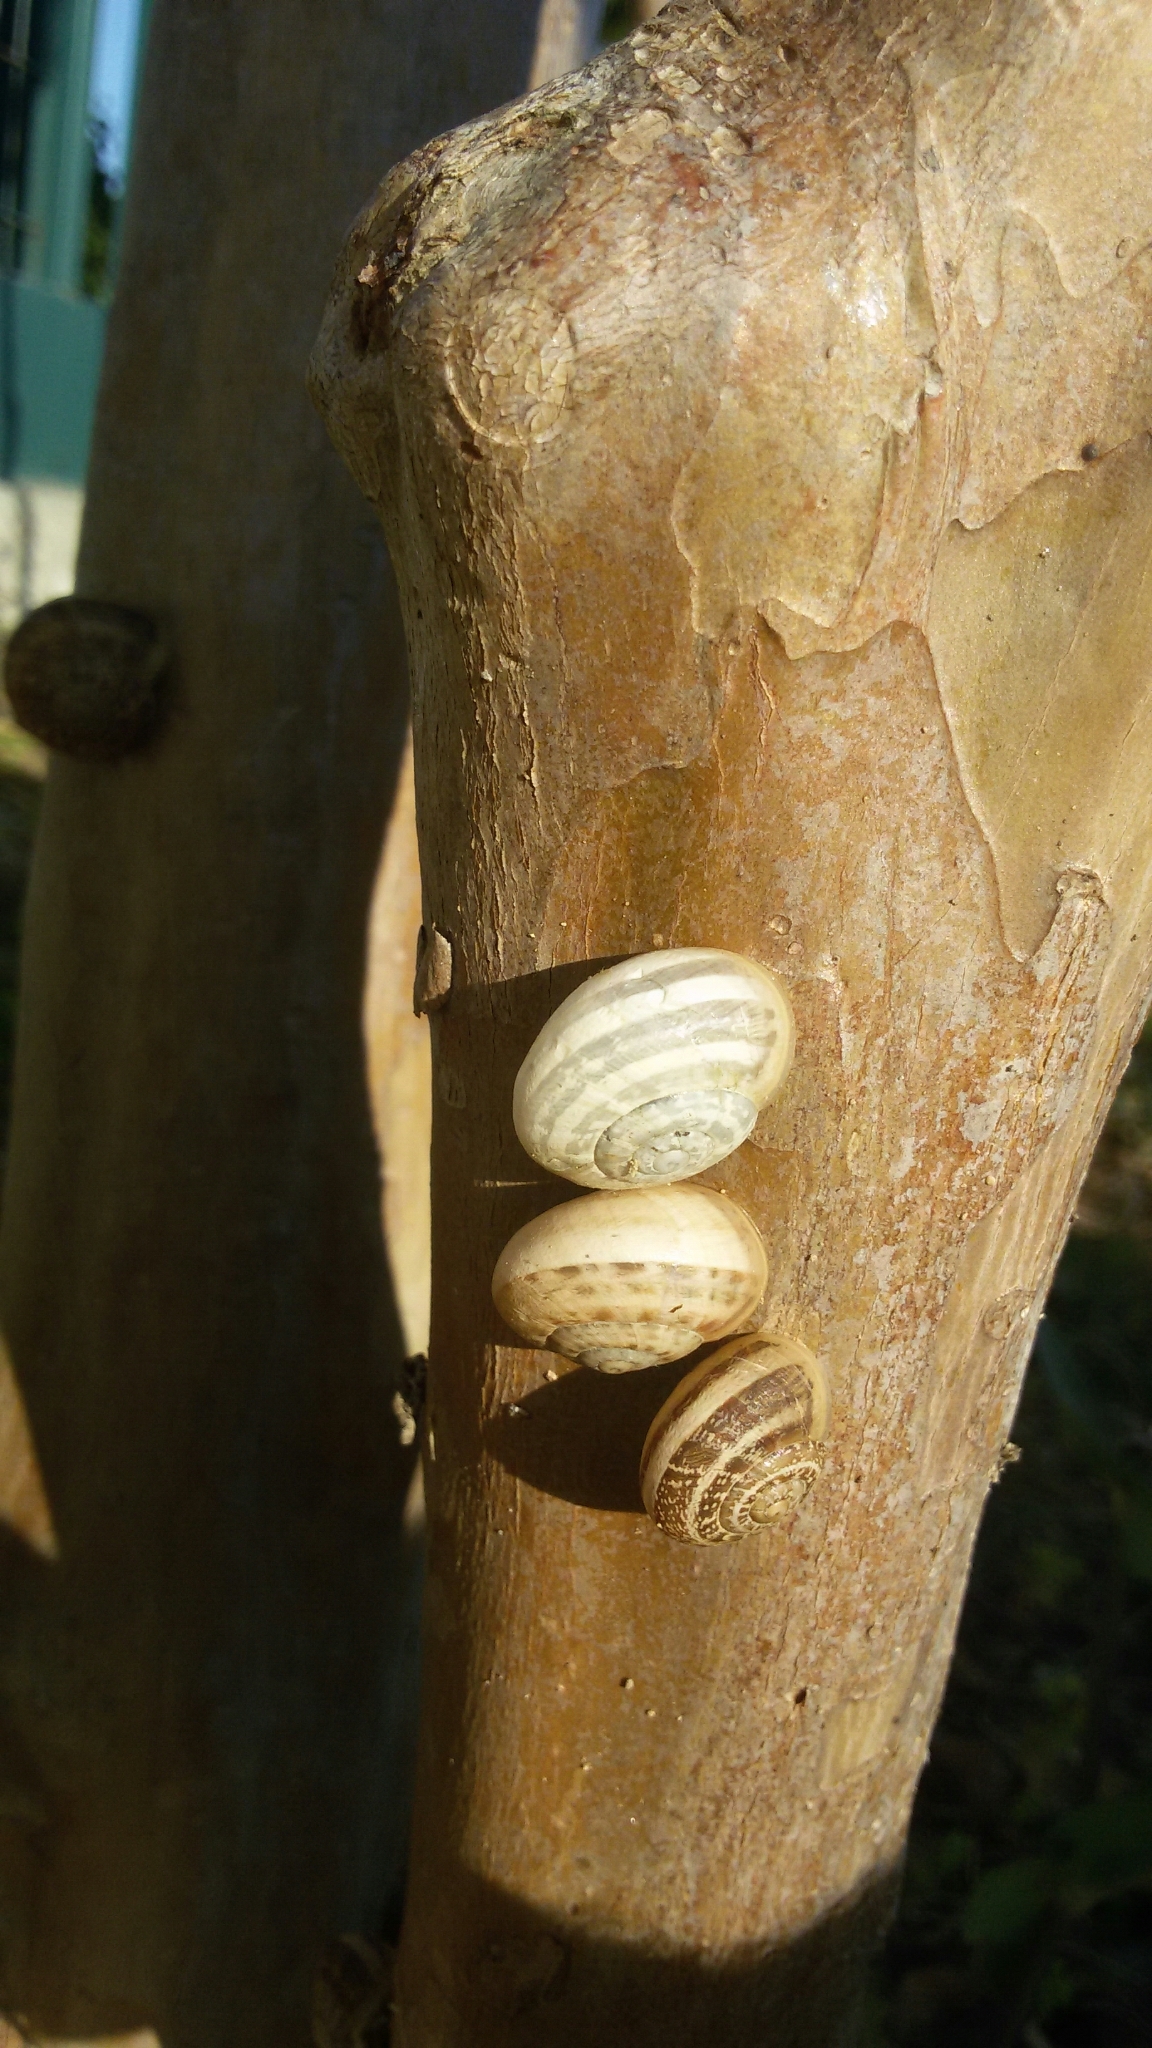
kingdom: Animalia
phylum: Mollusca
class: Gastropoda
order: Stylommatophora
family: Helicidae
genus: Eobania
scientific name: Eobania vermiculata
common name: Chocolateband snail
